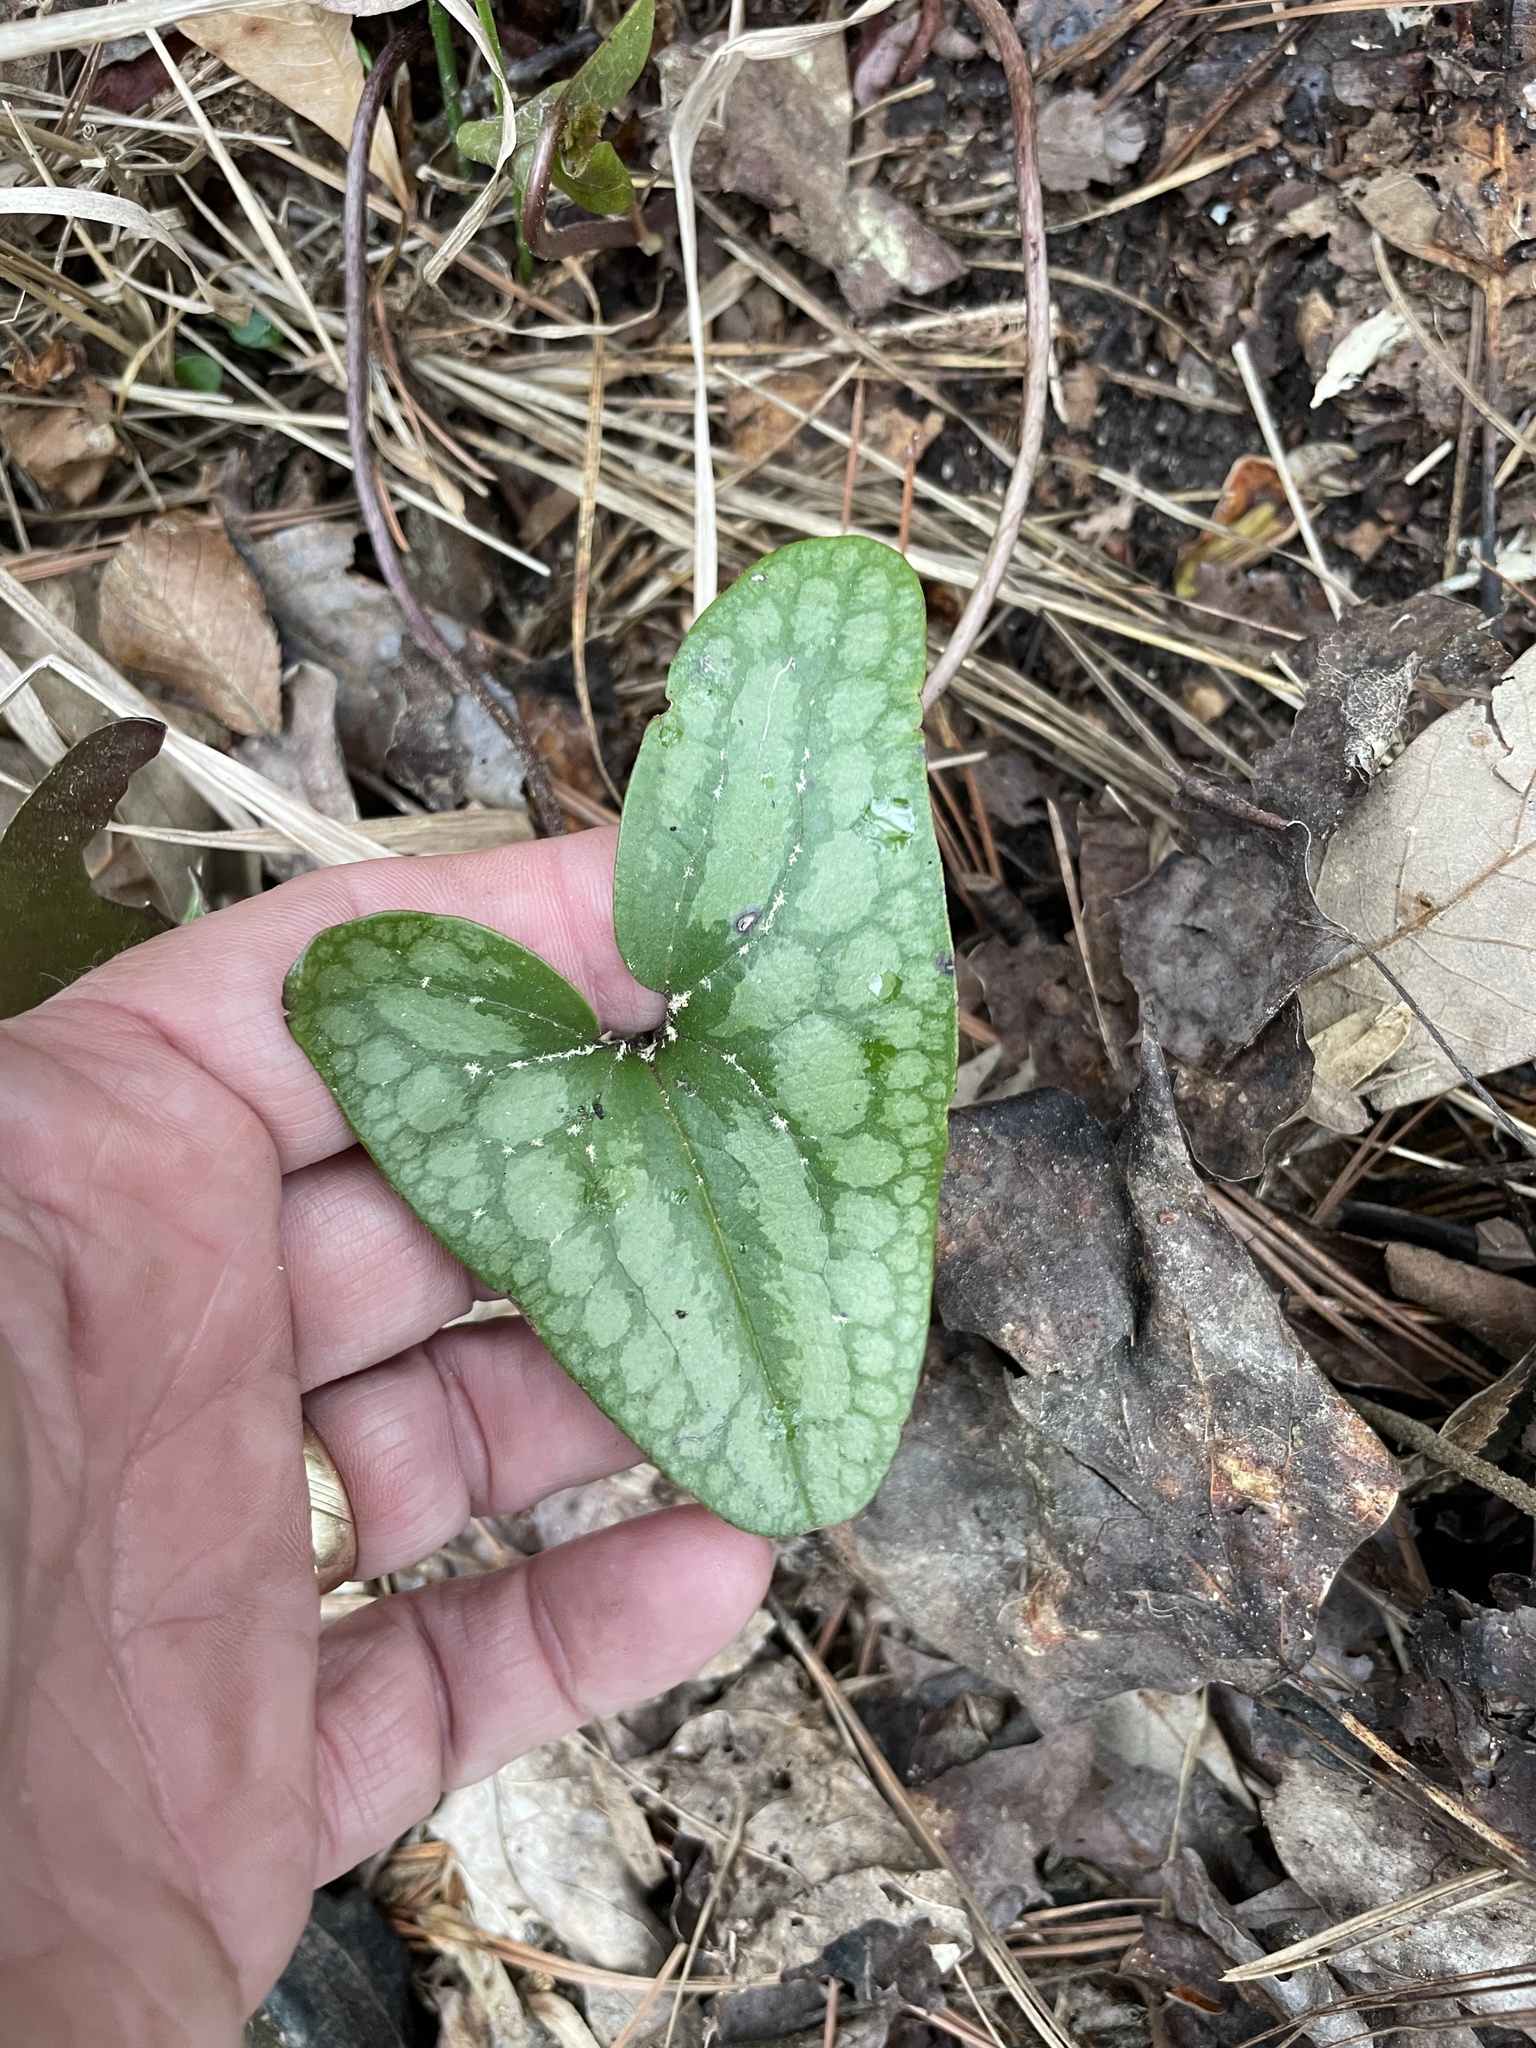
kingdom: Plantae
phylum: Tracheophyta
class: Magnoliopsida
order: Piperales
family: Aristolochiaceae
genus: Hexastylis
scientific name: Hexastylis arifolia
